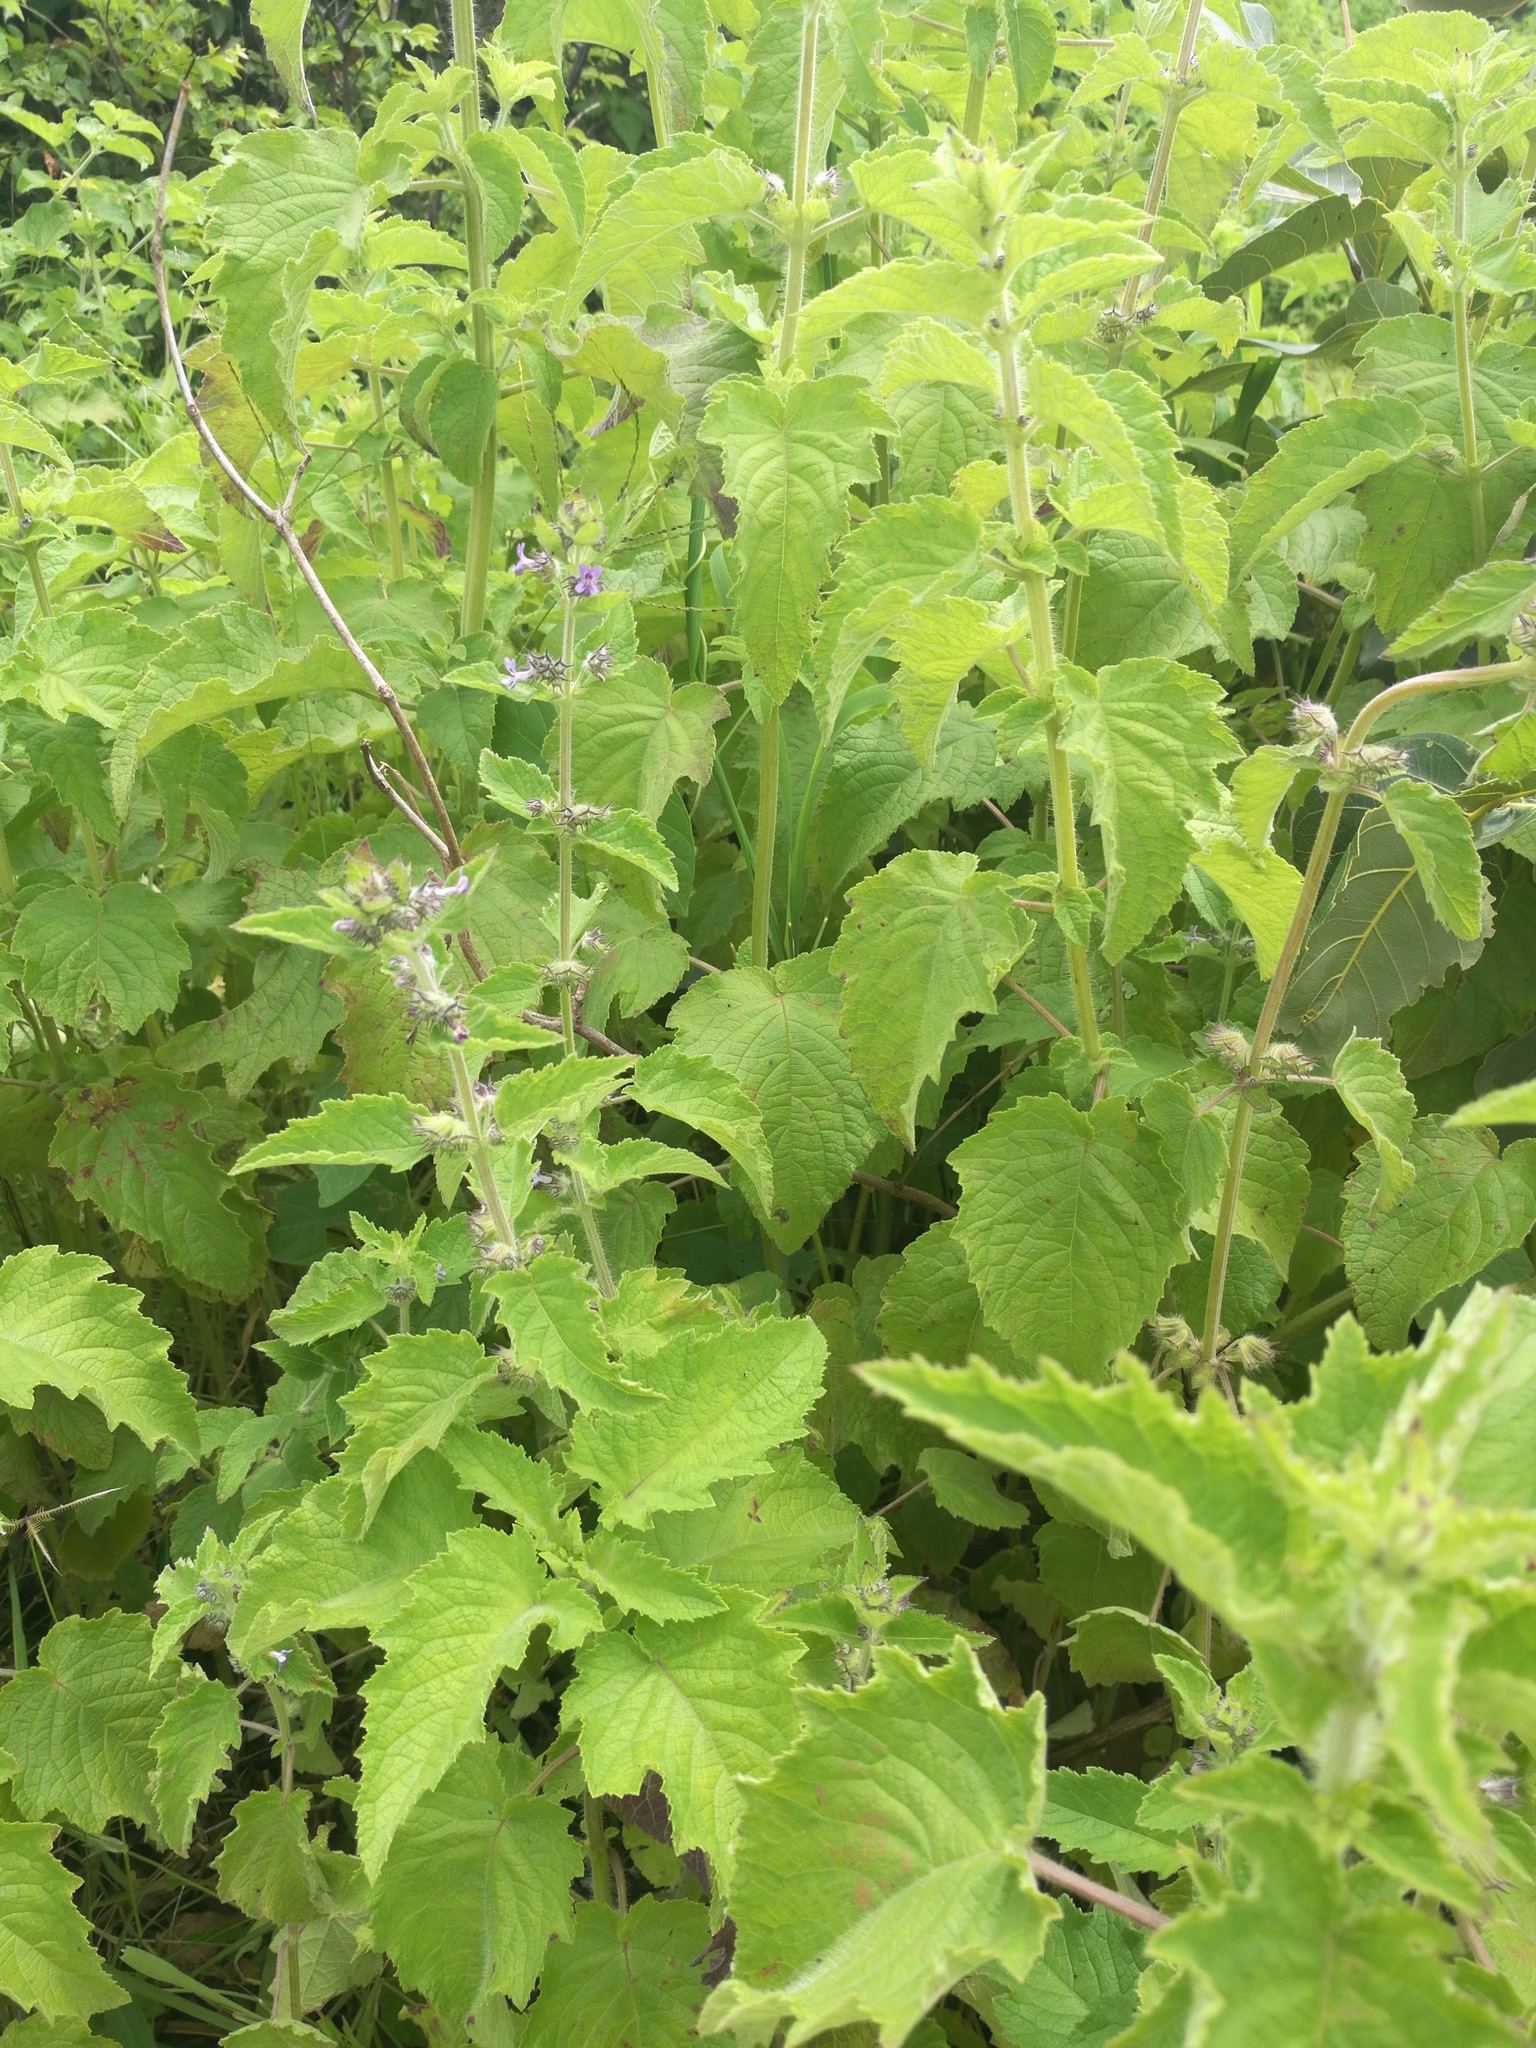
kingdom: Plantae
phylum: Tracheophyta
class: Magnoliopsida
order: Lamiales
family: Lamiaceae
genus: Mesosphaerum
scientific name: Mesosphaerum suaveolens
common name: Pignut
